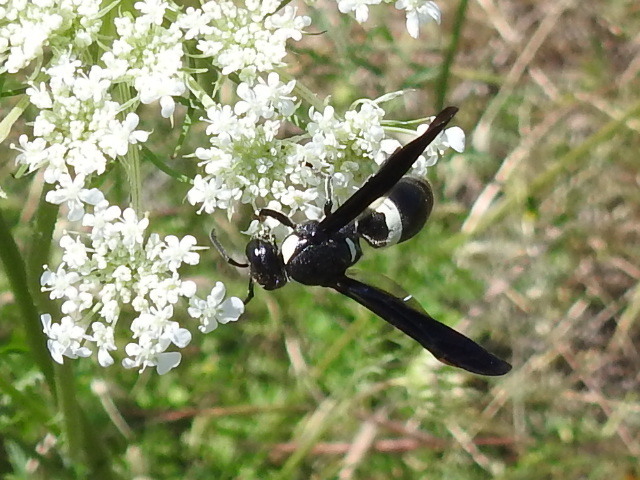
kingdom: Animalia
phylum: Arthropoda
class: Insecta
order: Hymenoptera
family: Eumenidae
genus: Monobia
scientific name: Monobia quadridens
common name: Four-toothed mason wasp
